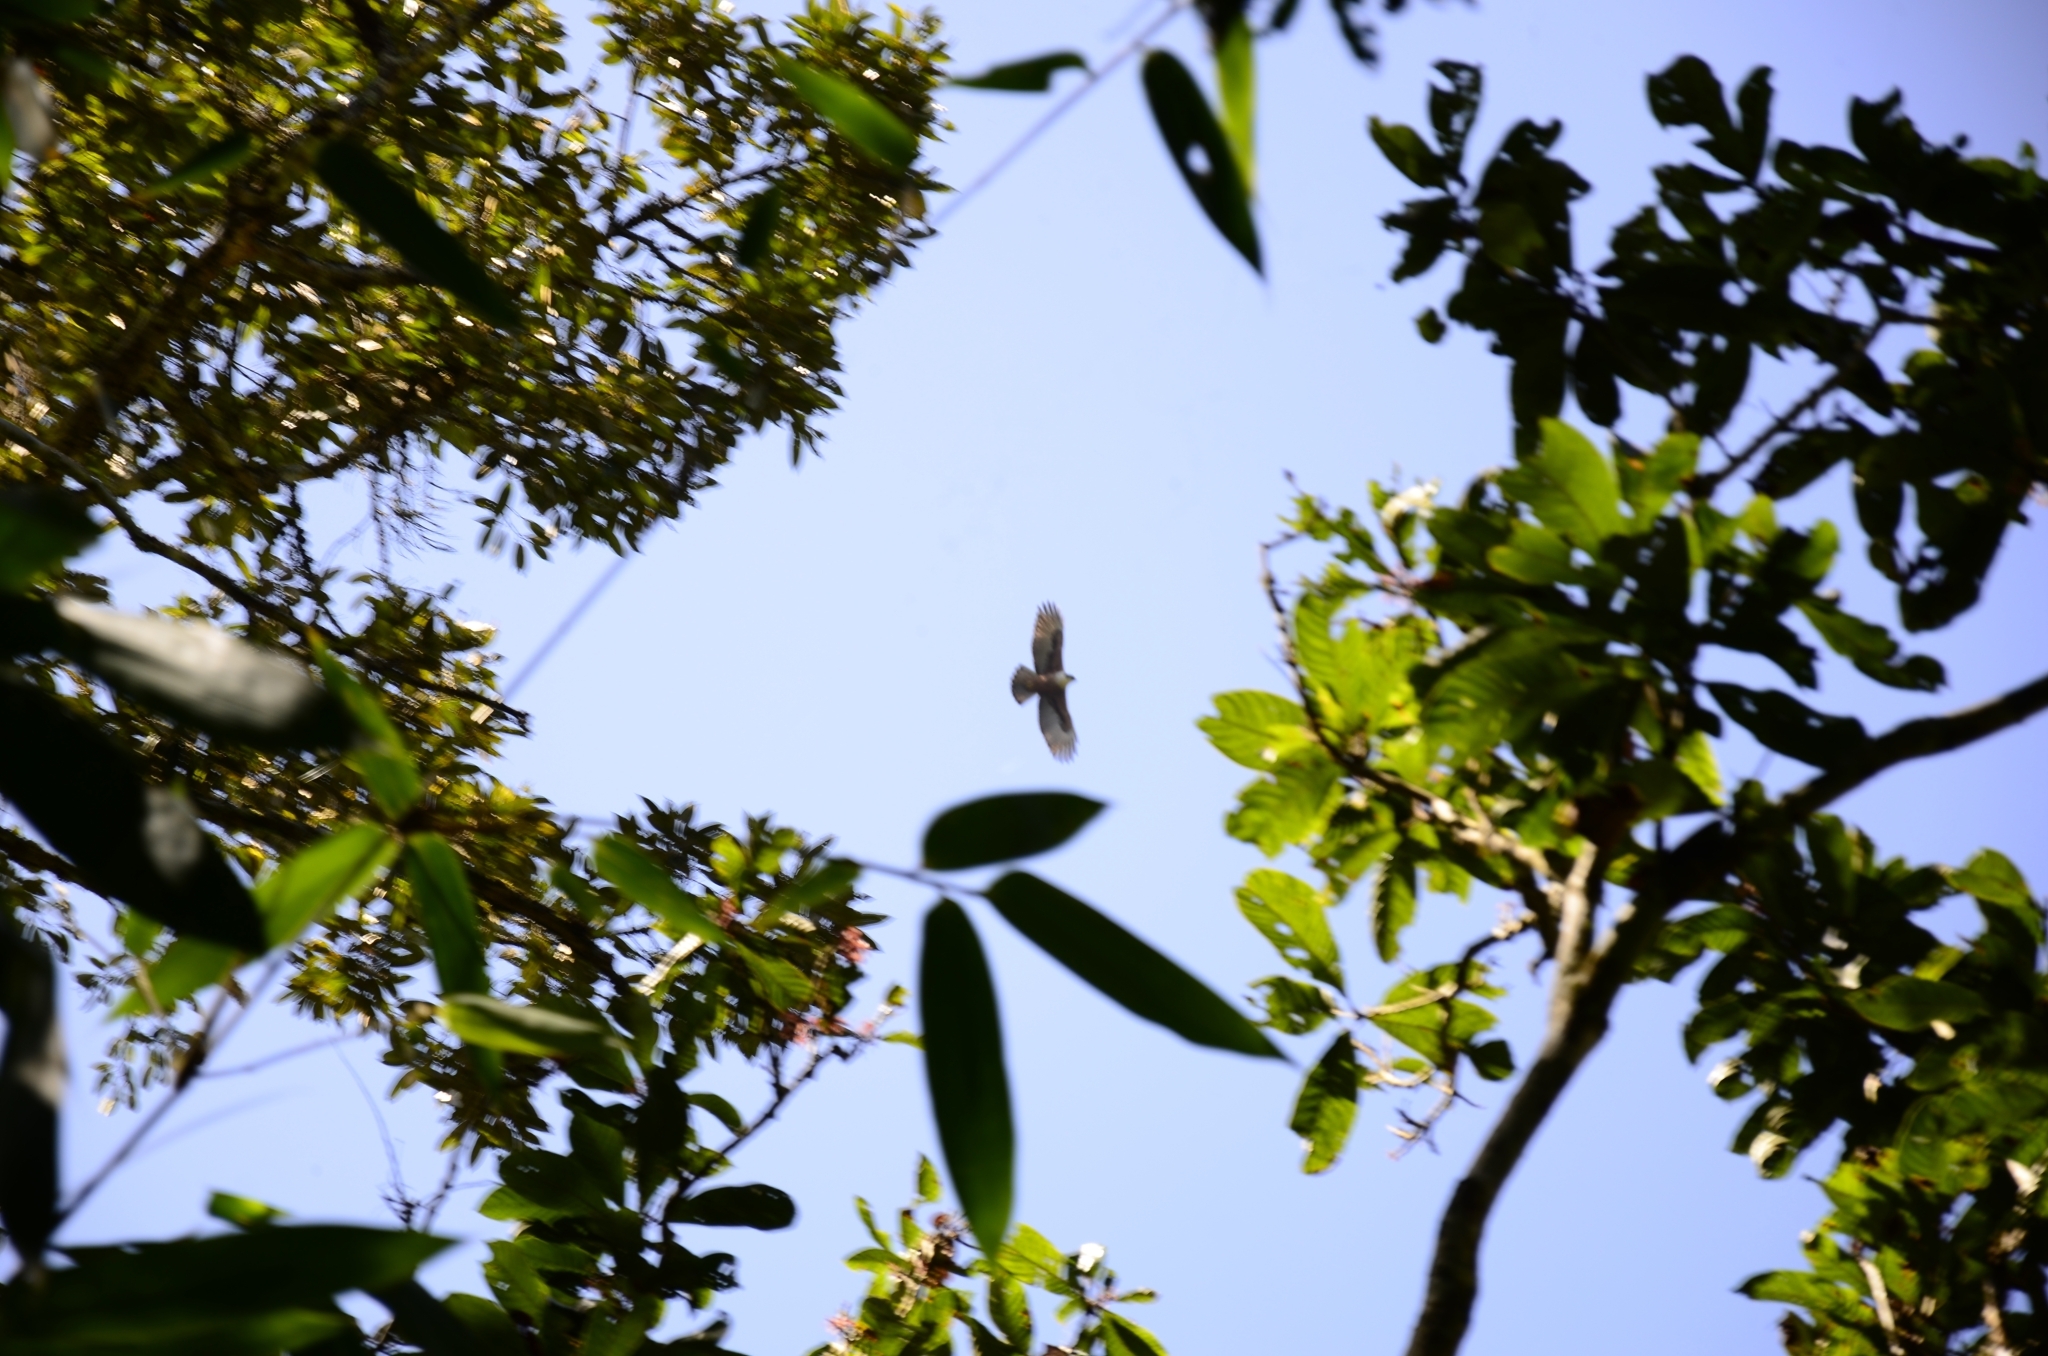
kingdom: Animalia
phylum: Chordata
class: Aves
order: Accipitriformes
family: Accipitridae
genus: Lophotriorchis
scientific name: Lophotriorchis kienerii
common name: Rufous-bellied eagle
